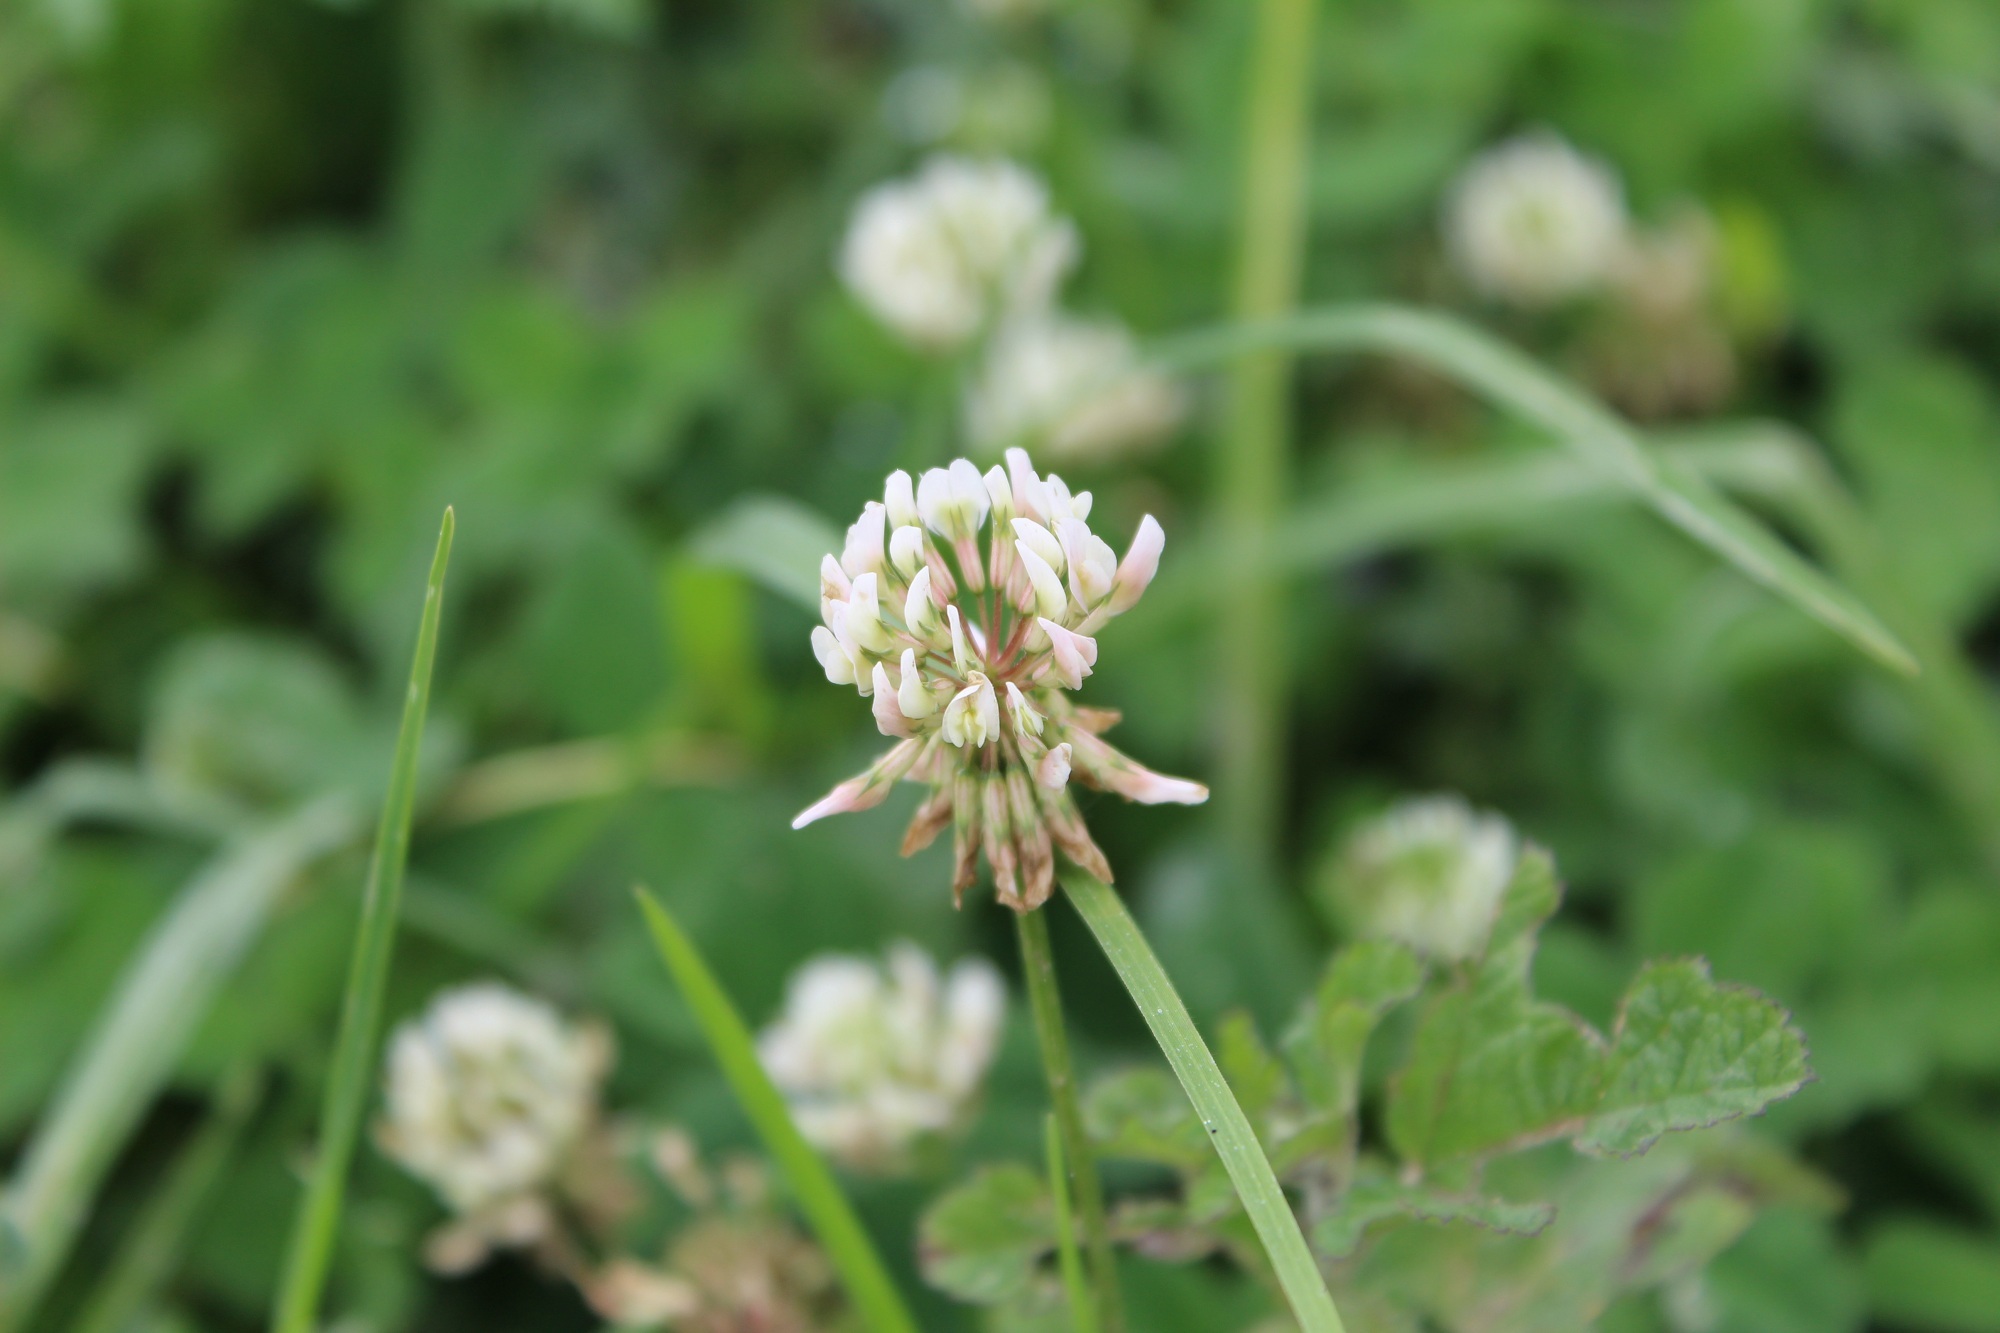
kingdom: Plantae
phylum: Tracheophyta
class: Magnoliopsida
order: Fabales
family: Fabaceae
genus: Trifolium
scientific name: Trifolium repens
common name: White clover
